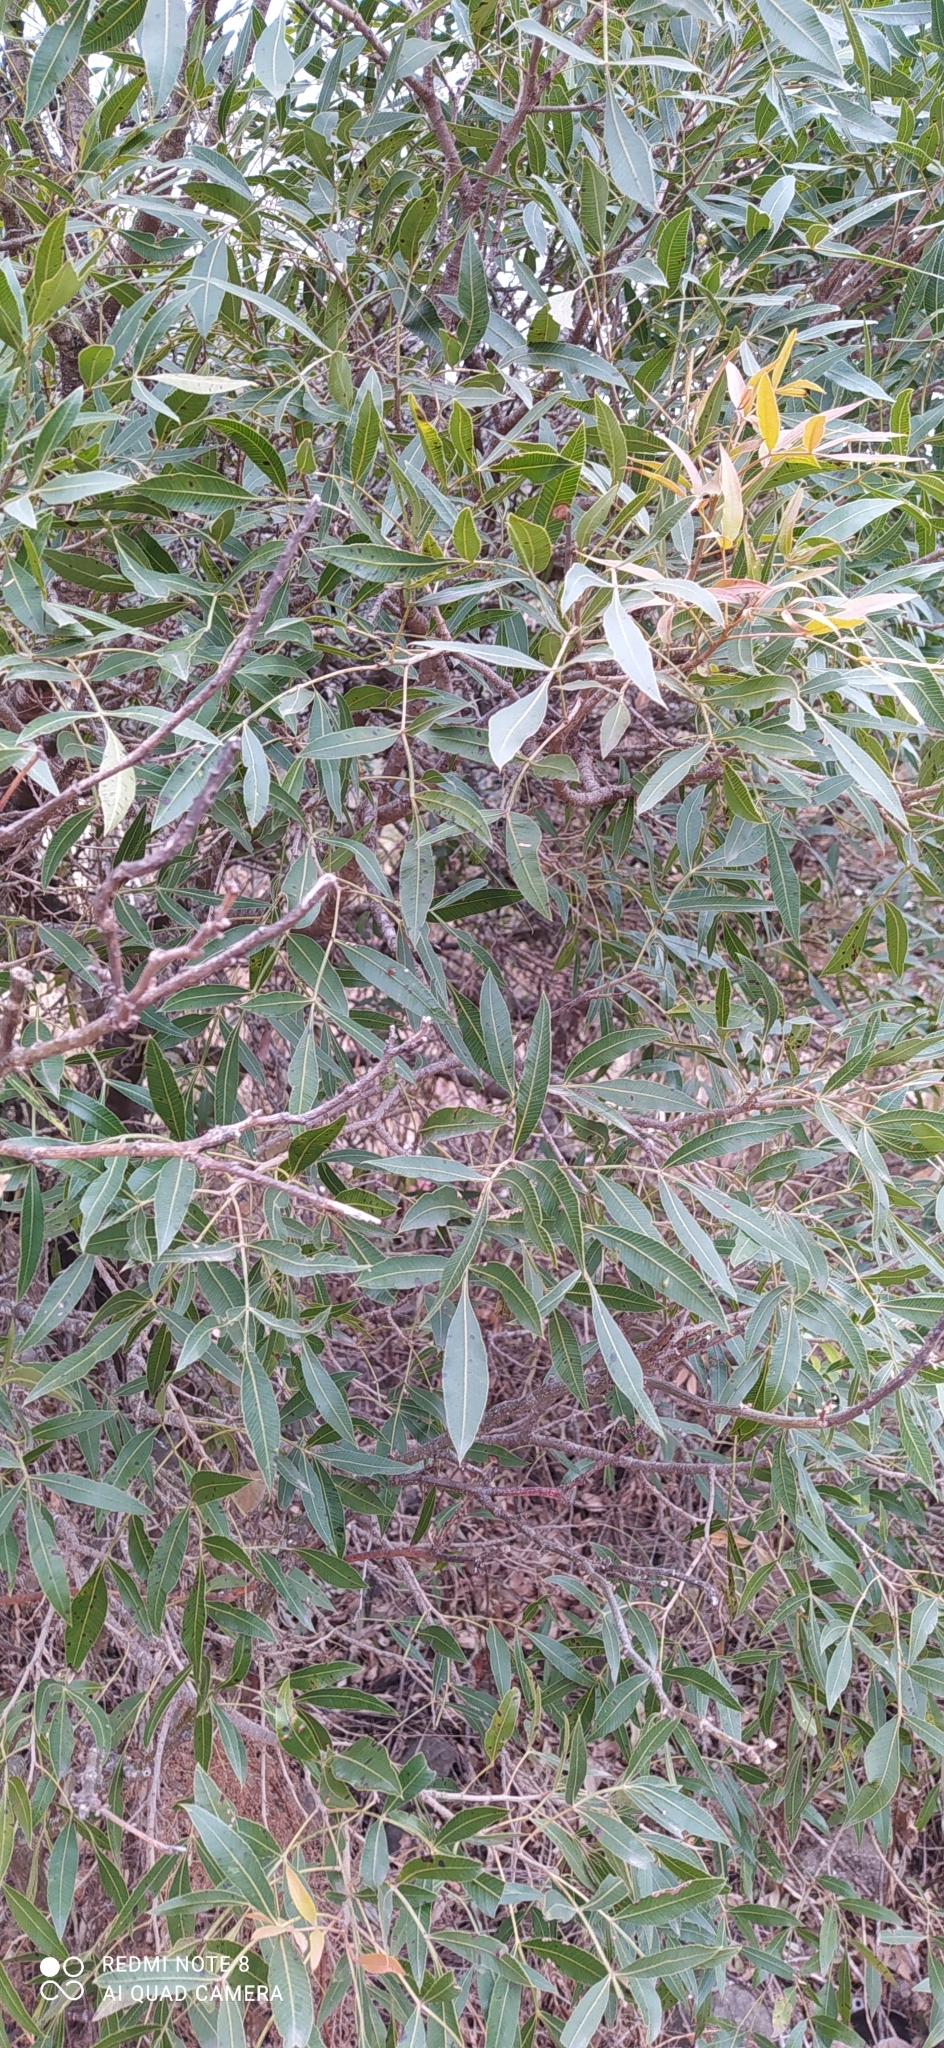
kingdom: Plantae
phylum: Tracheophyta
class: Magnoliopsida
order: Sapindales
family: Anacardiaceae
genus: Lithraea
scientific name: Lithraea molleoides
